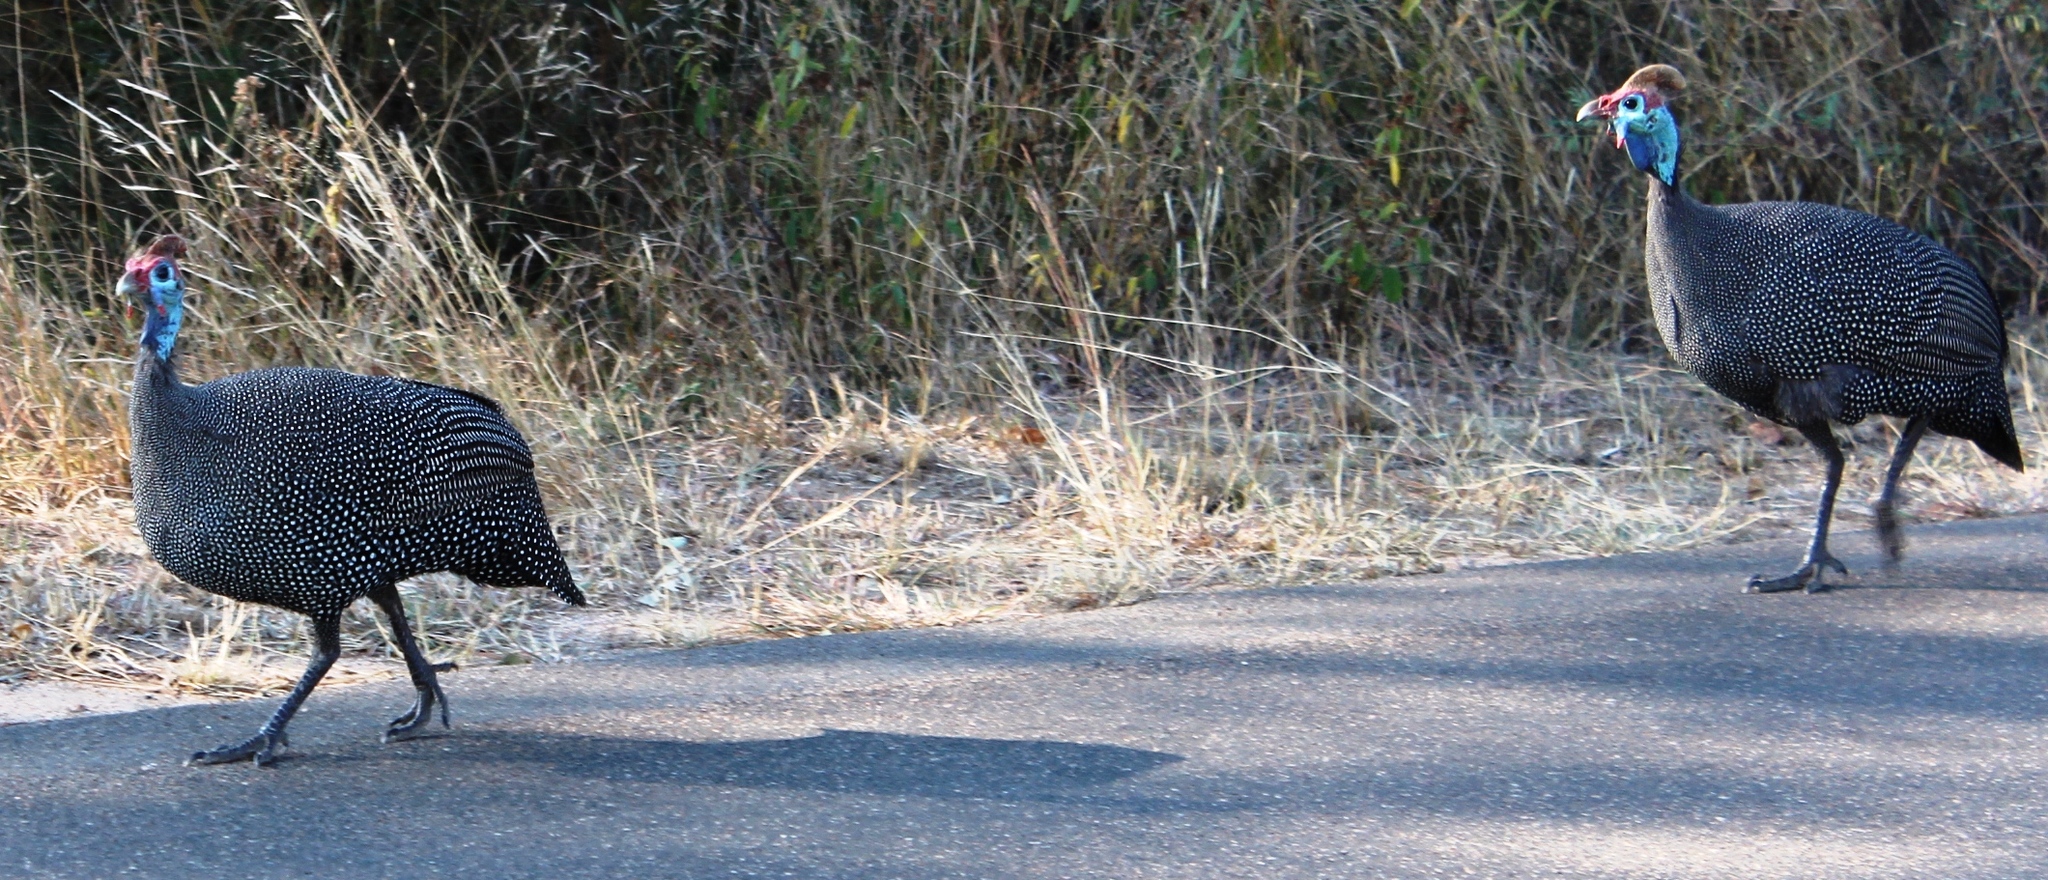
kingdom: Animalia
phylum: Chordata
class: Aves
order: Galliformes
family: Numididae
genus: Numida
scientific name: Numida meleagris
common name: Helmeted guineafowl
